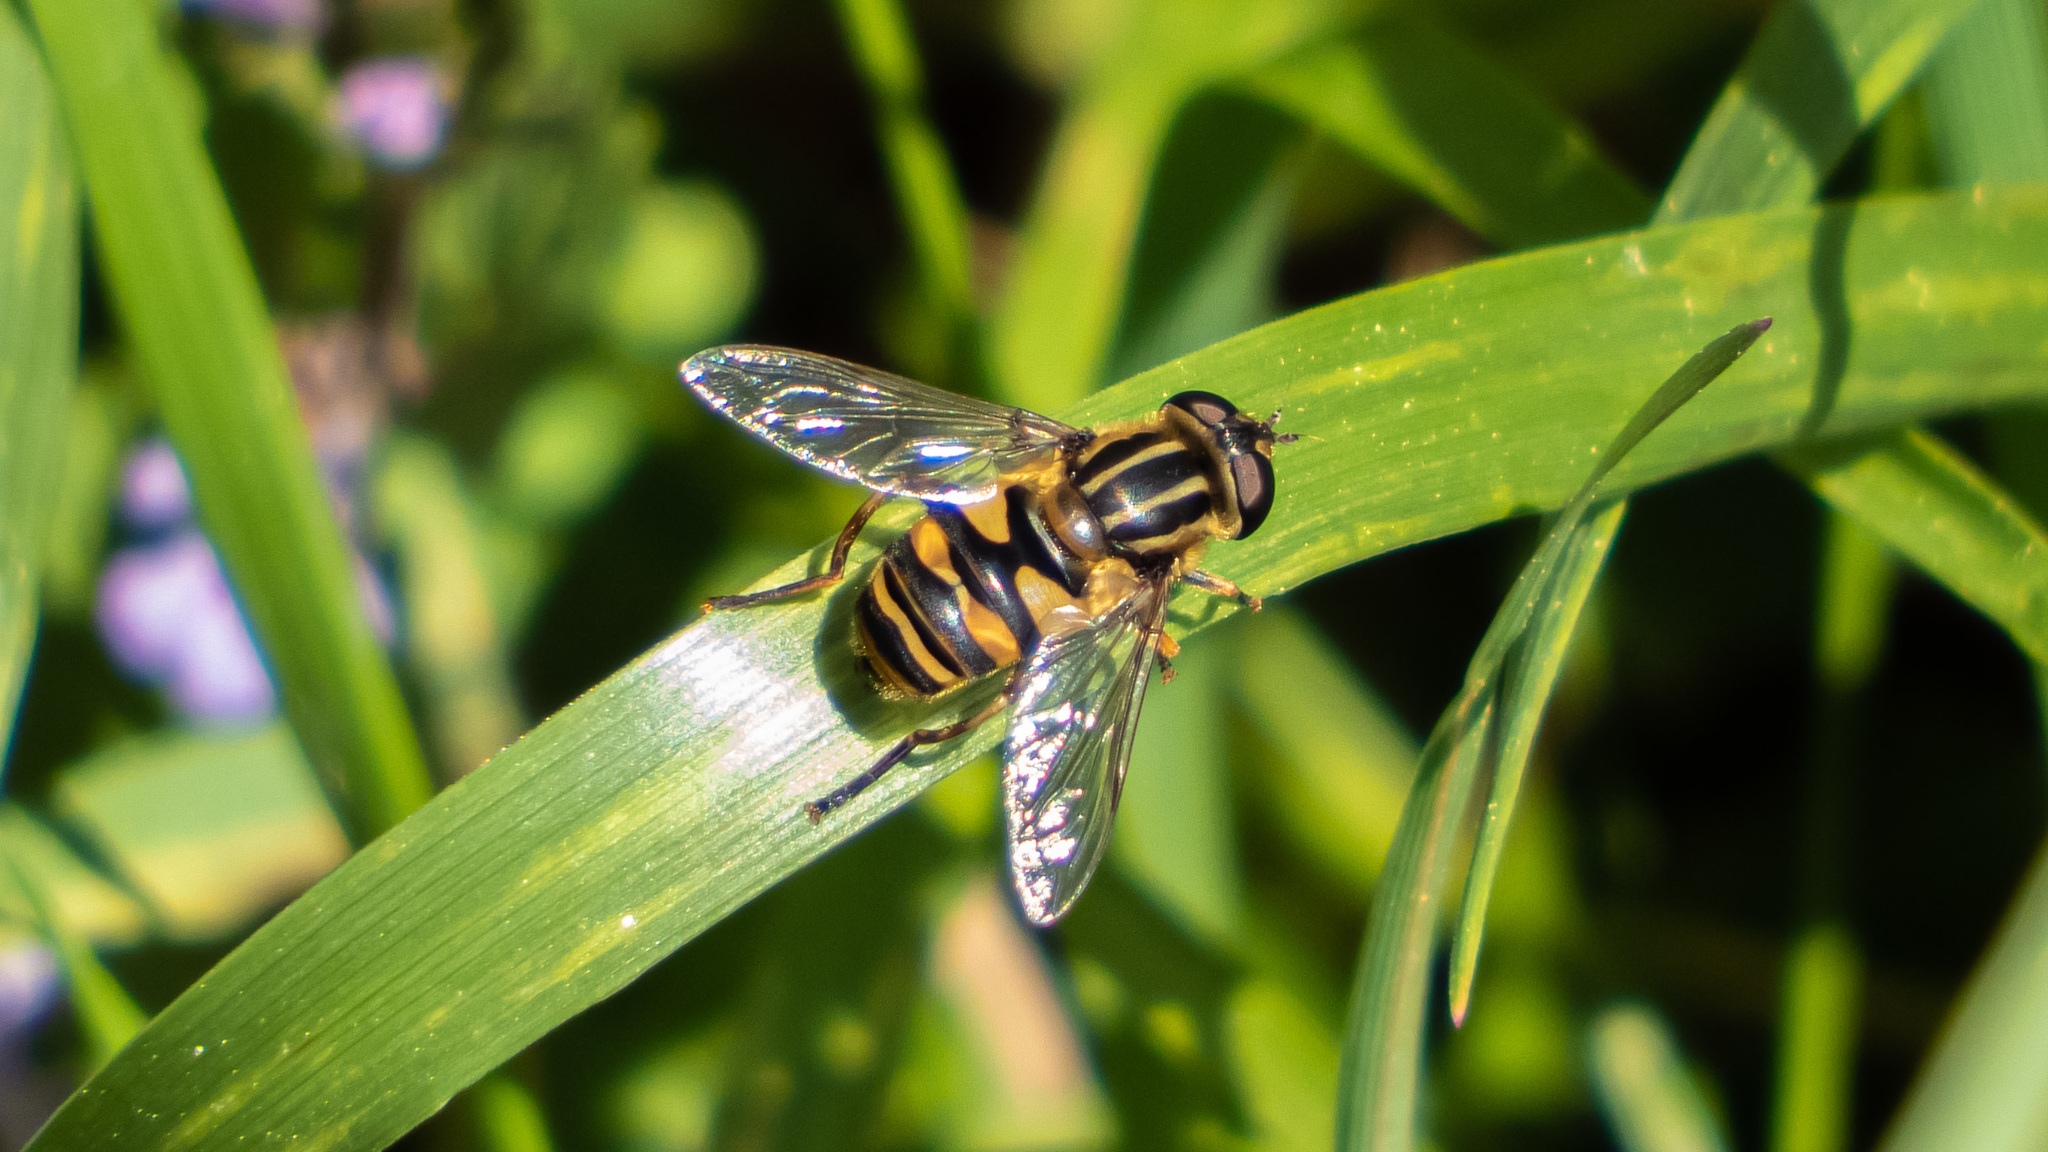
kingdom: Animalia
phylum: Arthropoda
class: Insecta
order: Diptera
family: Syrphidae
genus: Helophilus
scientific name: Helophilus fasciatus
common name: Narrow-headed marsh fly
